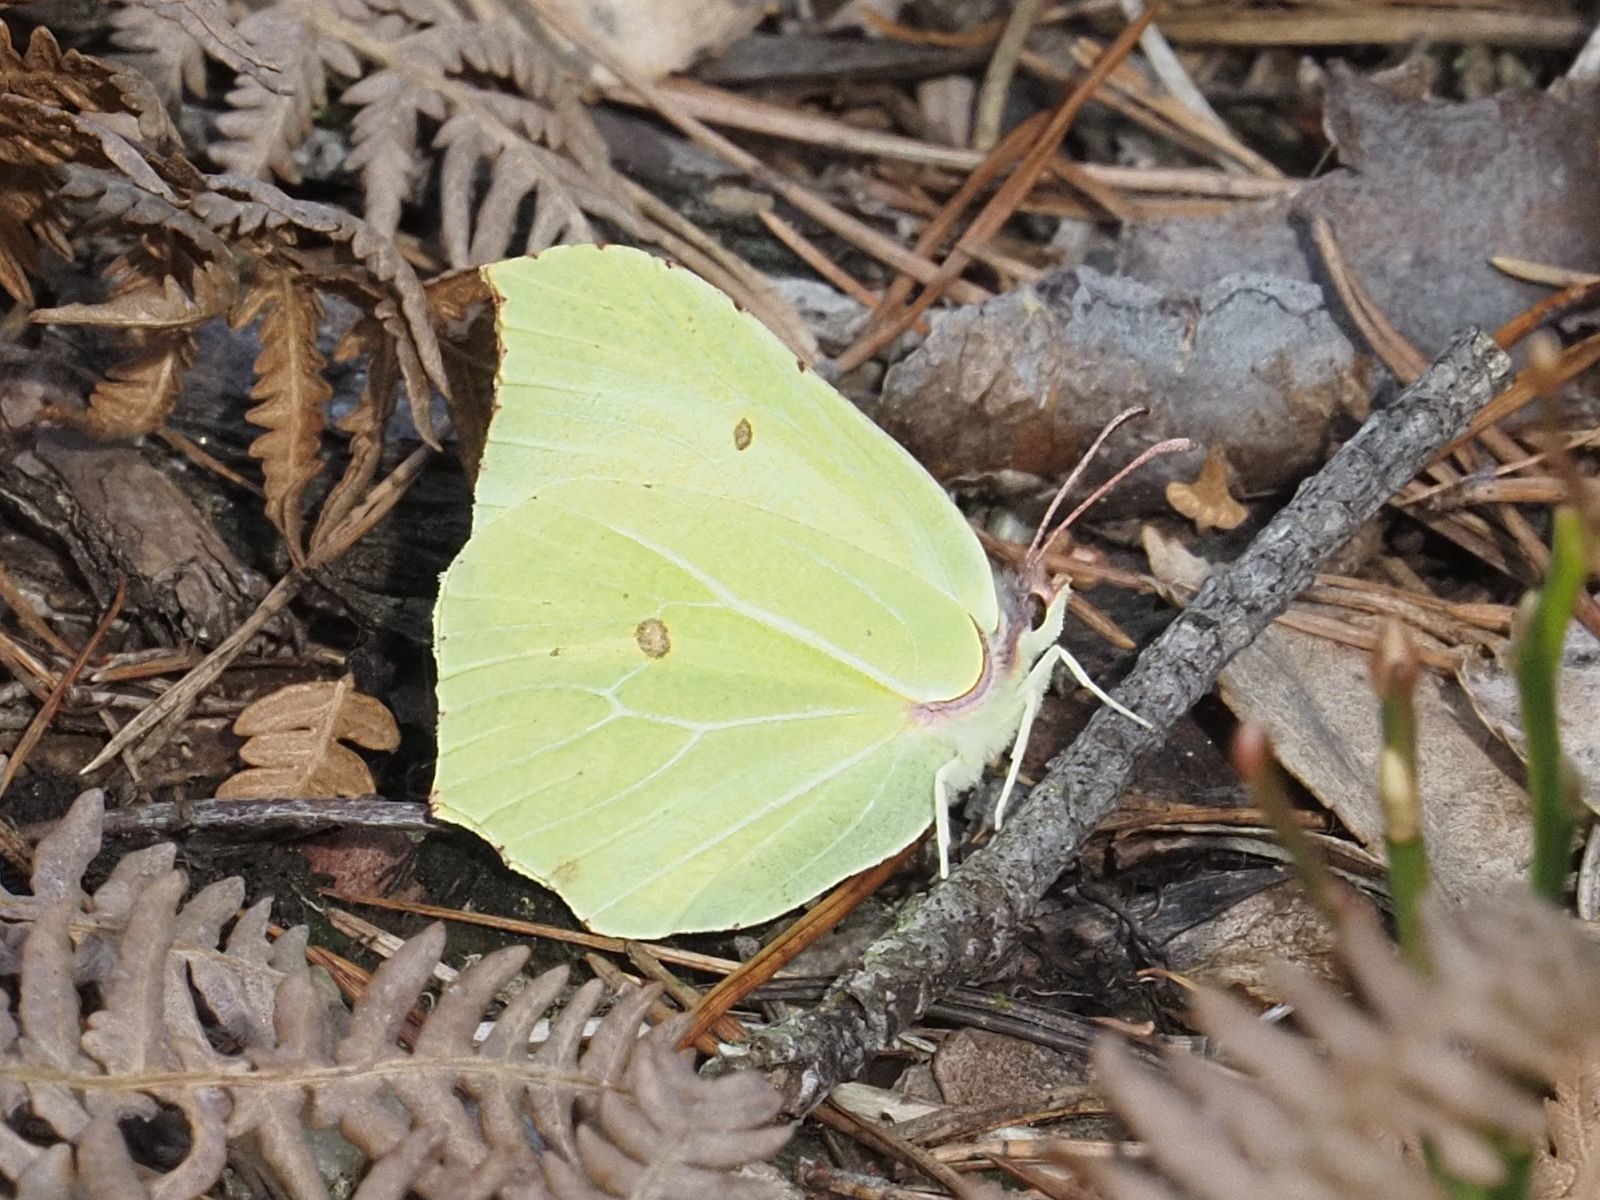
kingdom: Animalia
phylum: Arthropoda
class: Insecta
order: Lepidoptera
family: Pieridae
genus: Gonepteryx
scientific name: Gonepteryx rhamni
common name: Brimstone
